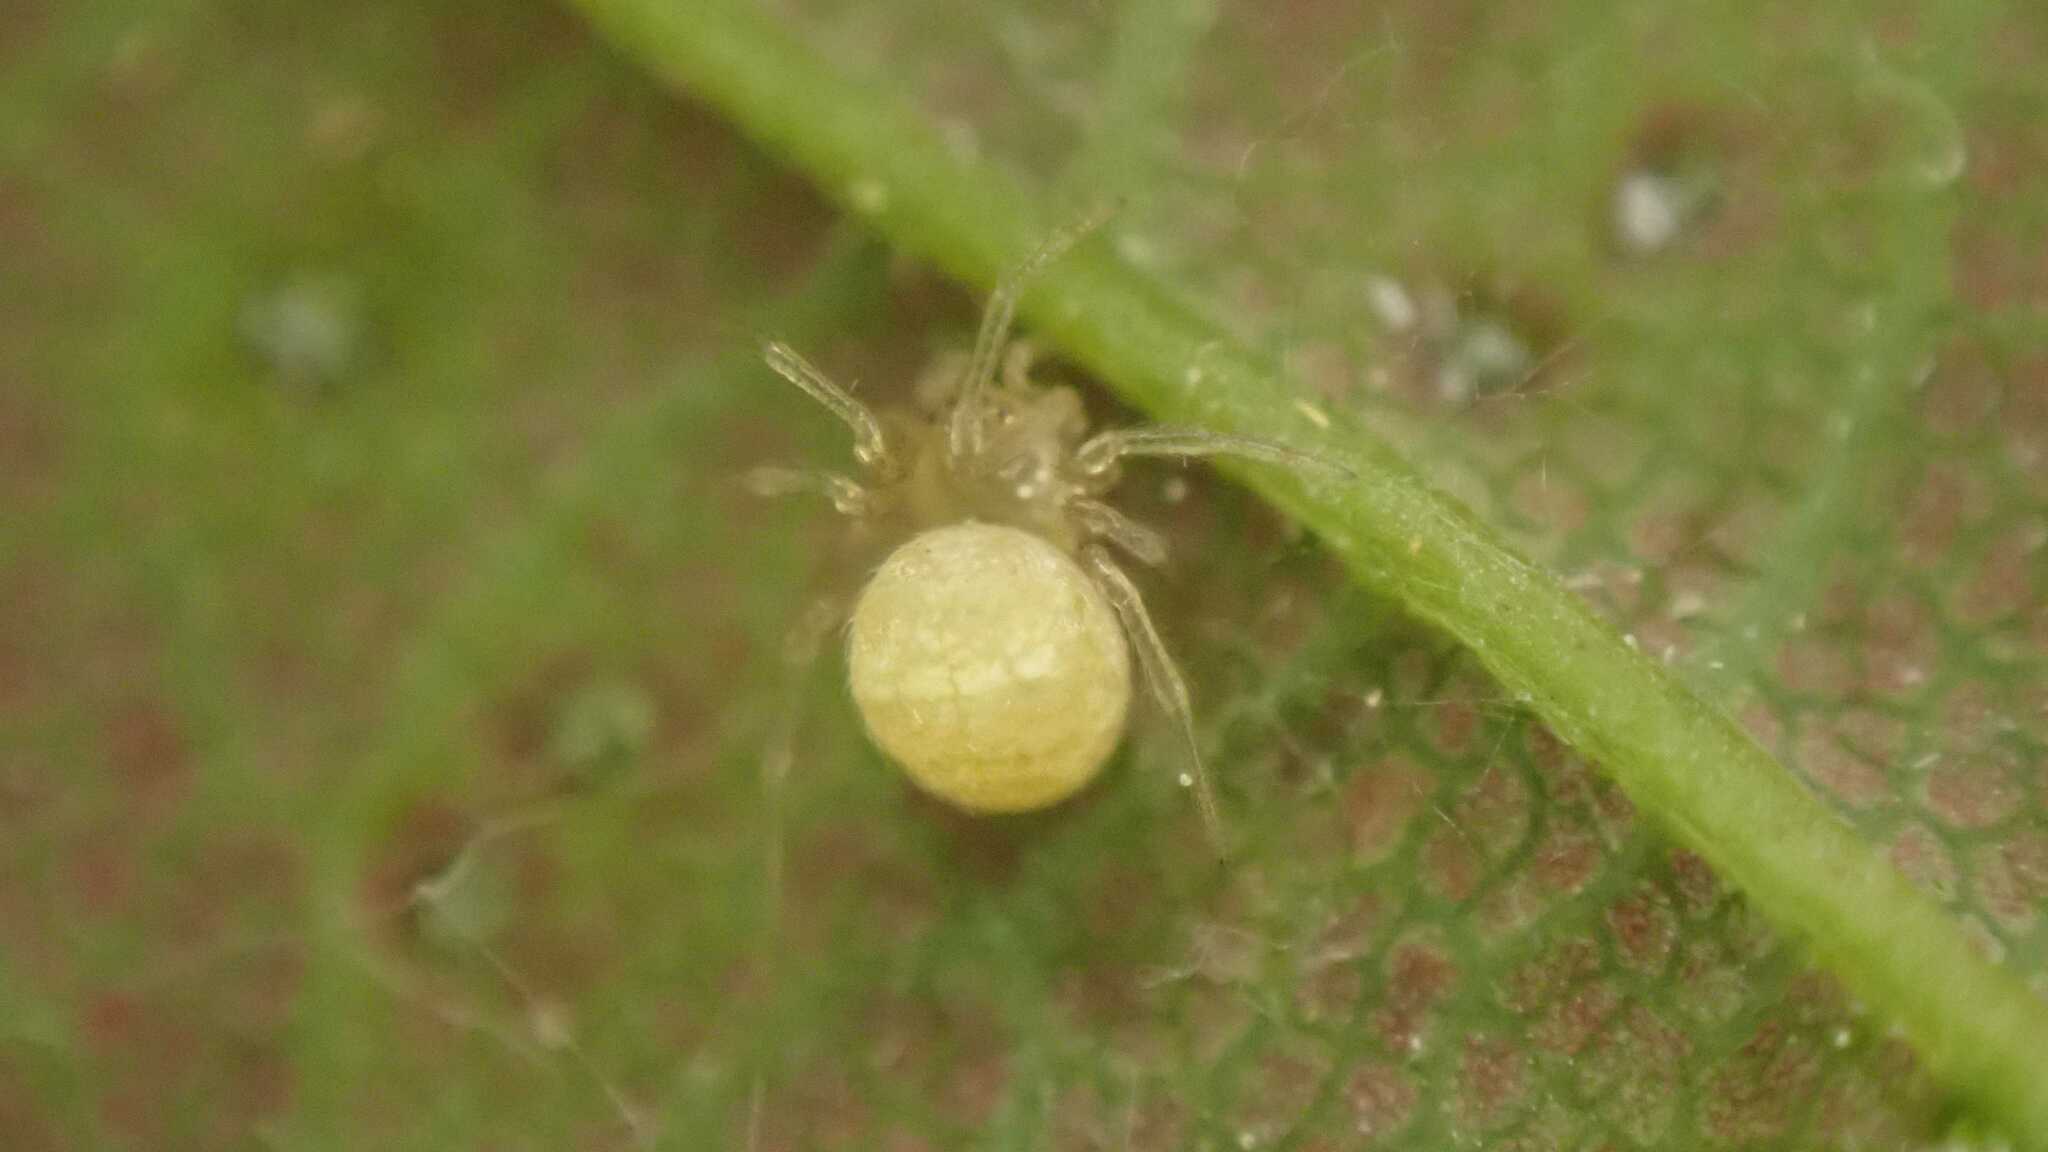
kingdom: Animalia
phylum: Arthropoda
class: Arachnida
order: Araneae
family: Theridiidae
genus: Paidiscura
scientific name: Paidiscura pallens
